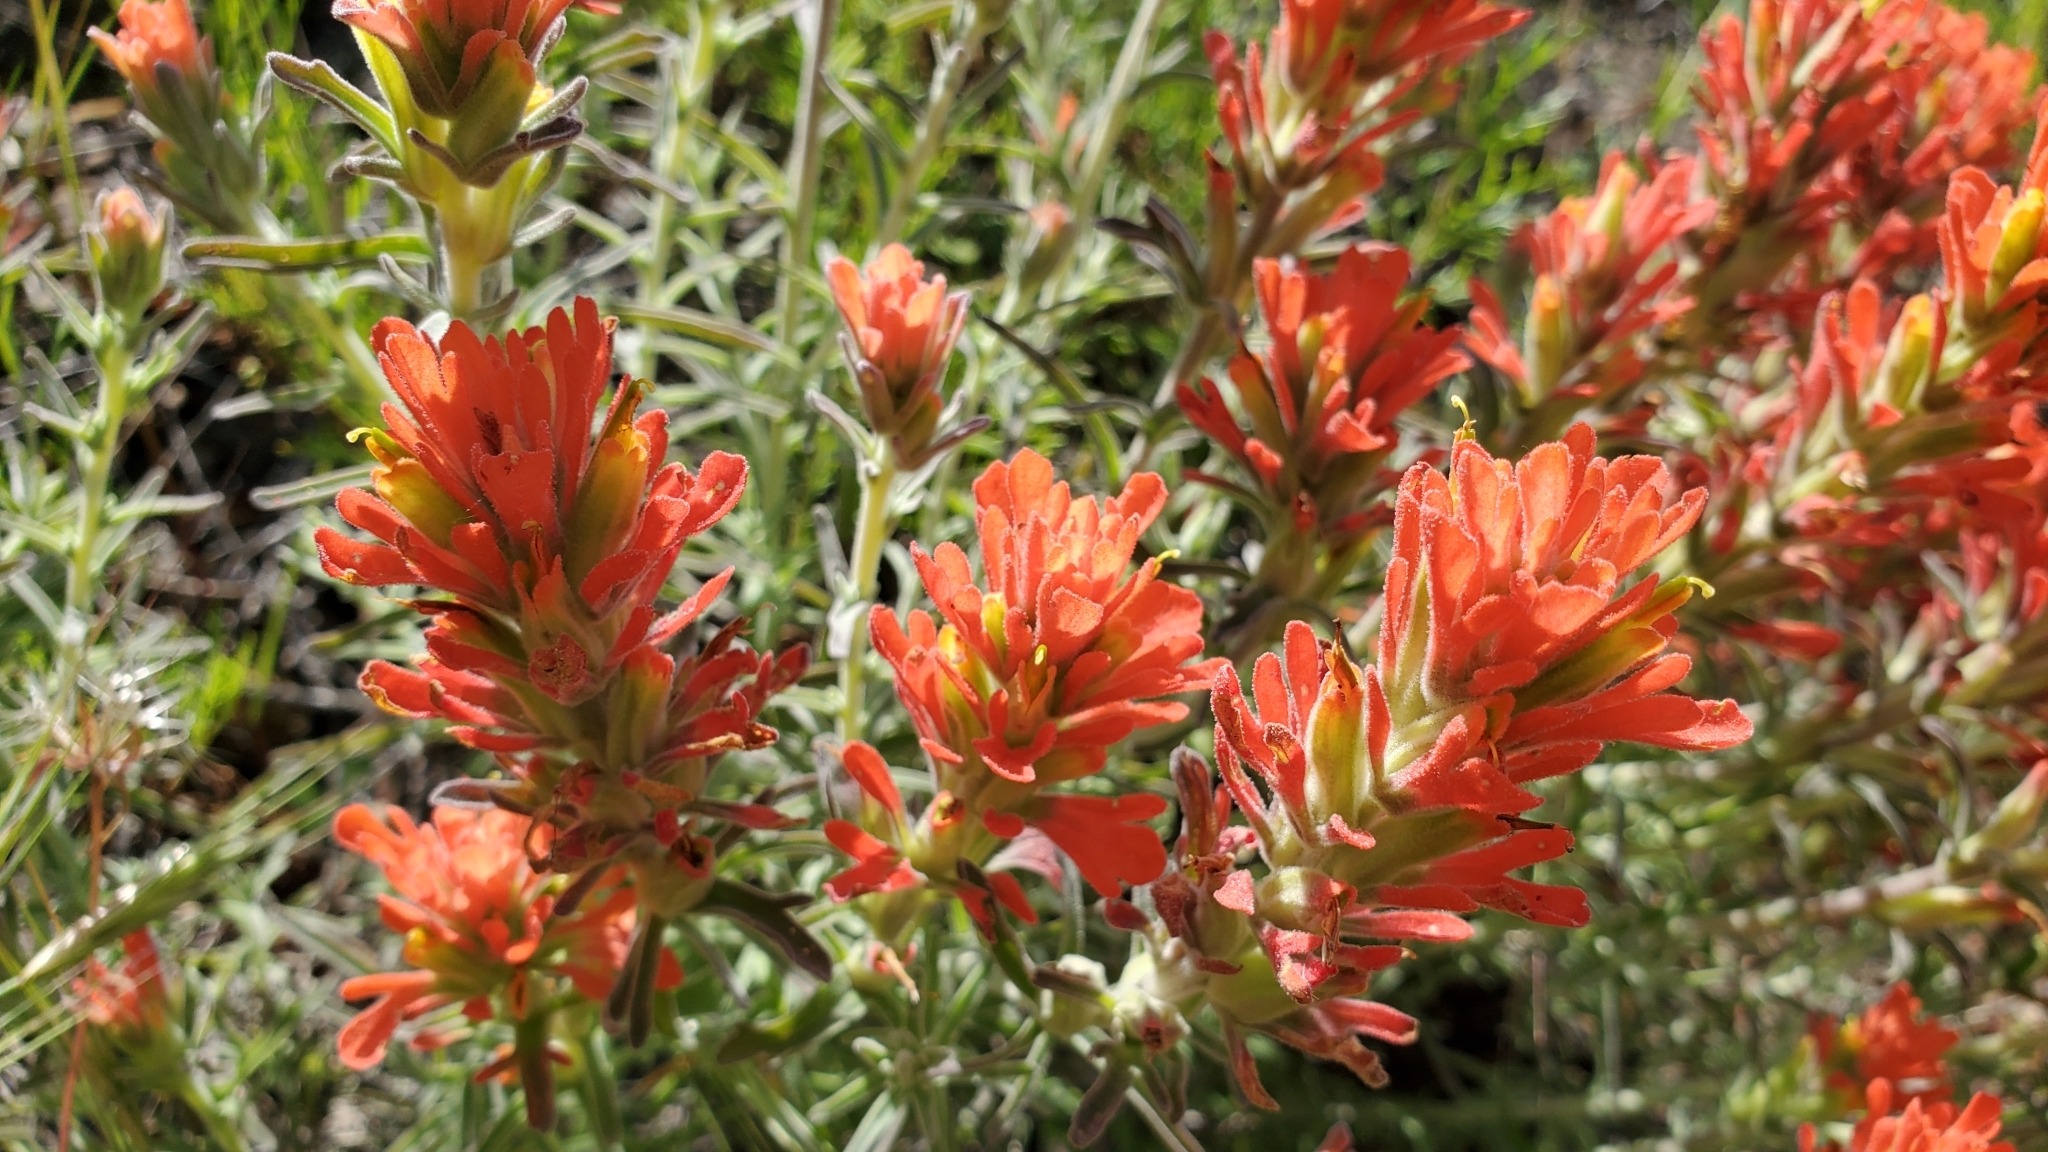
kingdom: Plantae
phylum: Tracheophyta
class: Magnoliopsida
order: Lamiales
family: Orobanchaceae
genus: Castilleja
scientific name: Castilleja foliolosa
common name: Woolly indian paintbrush
